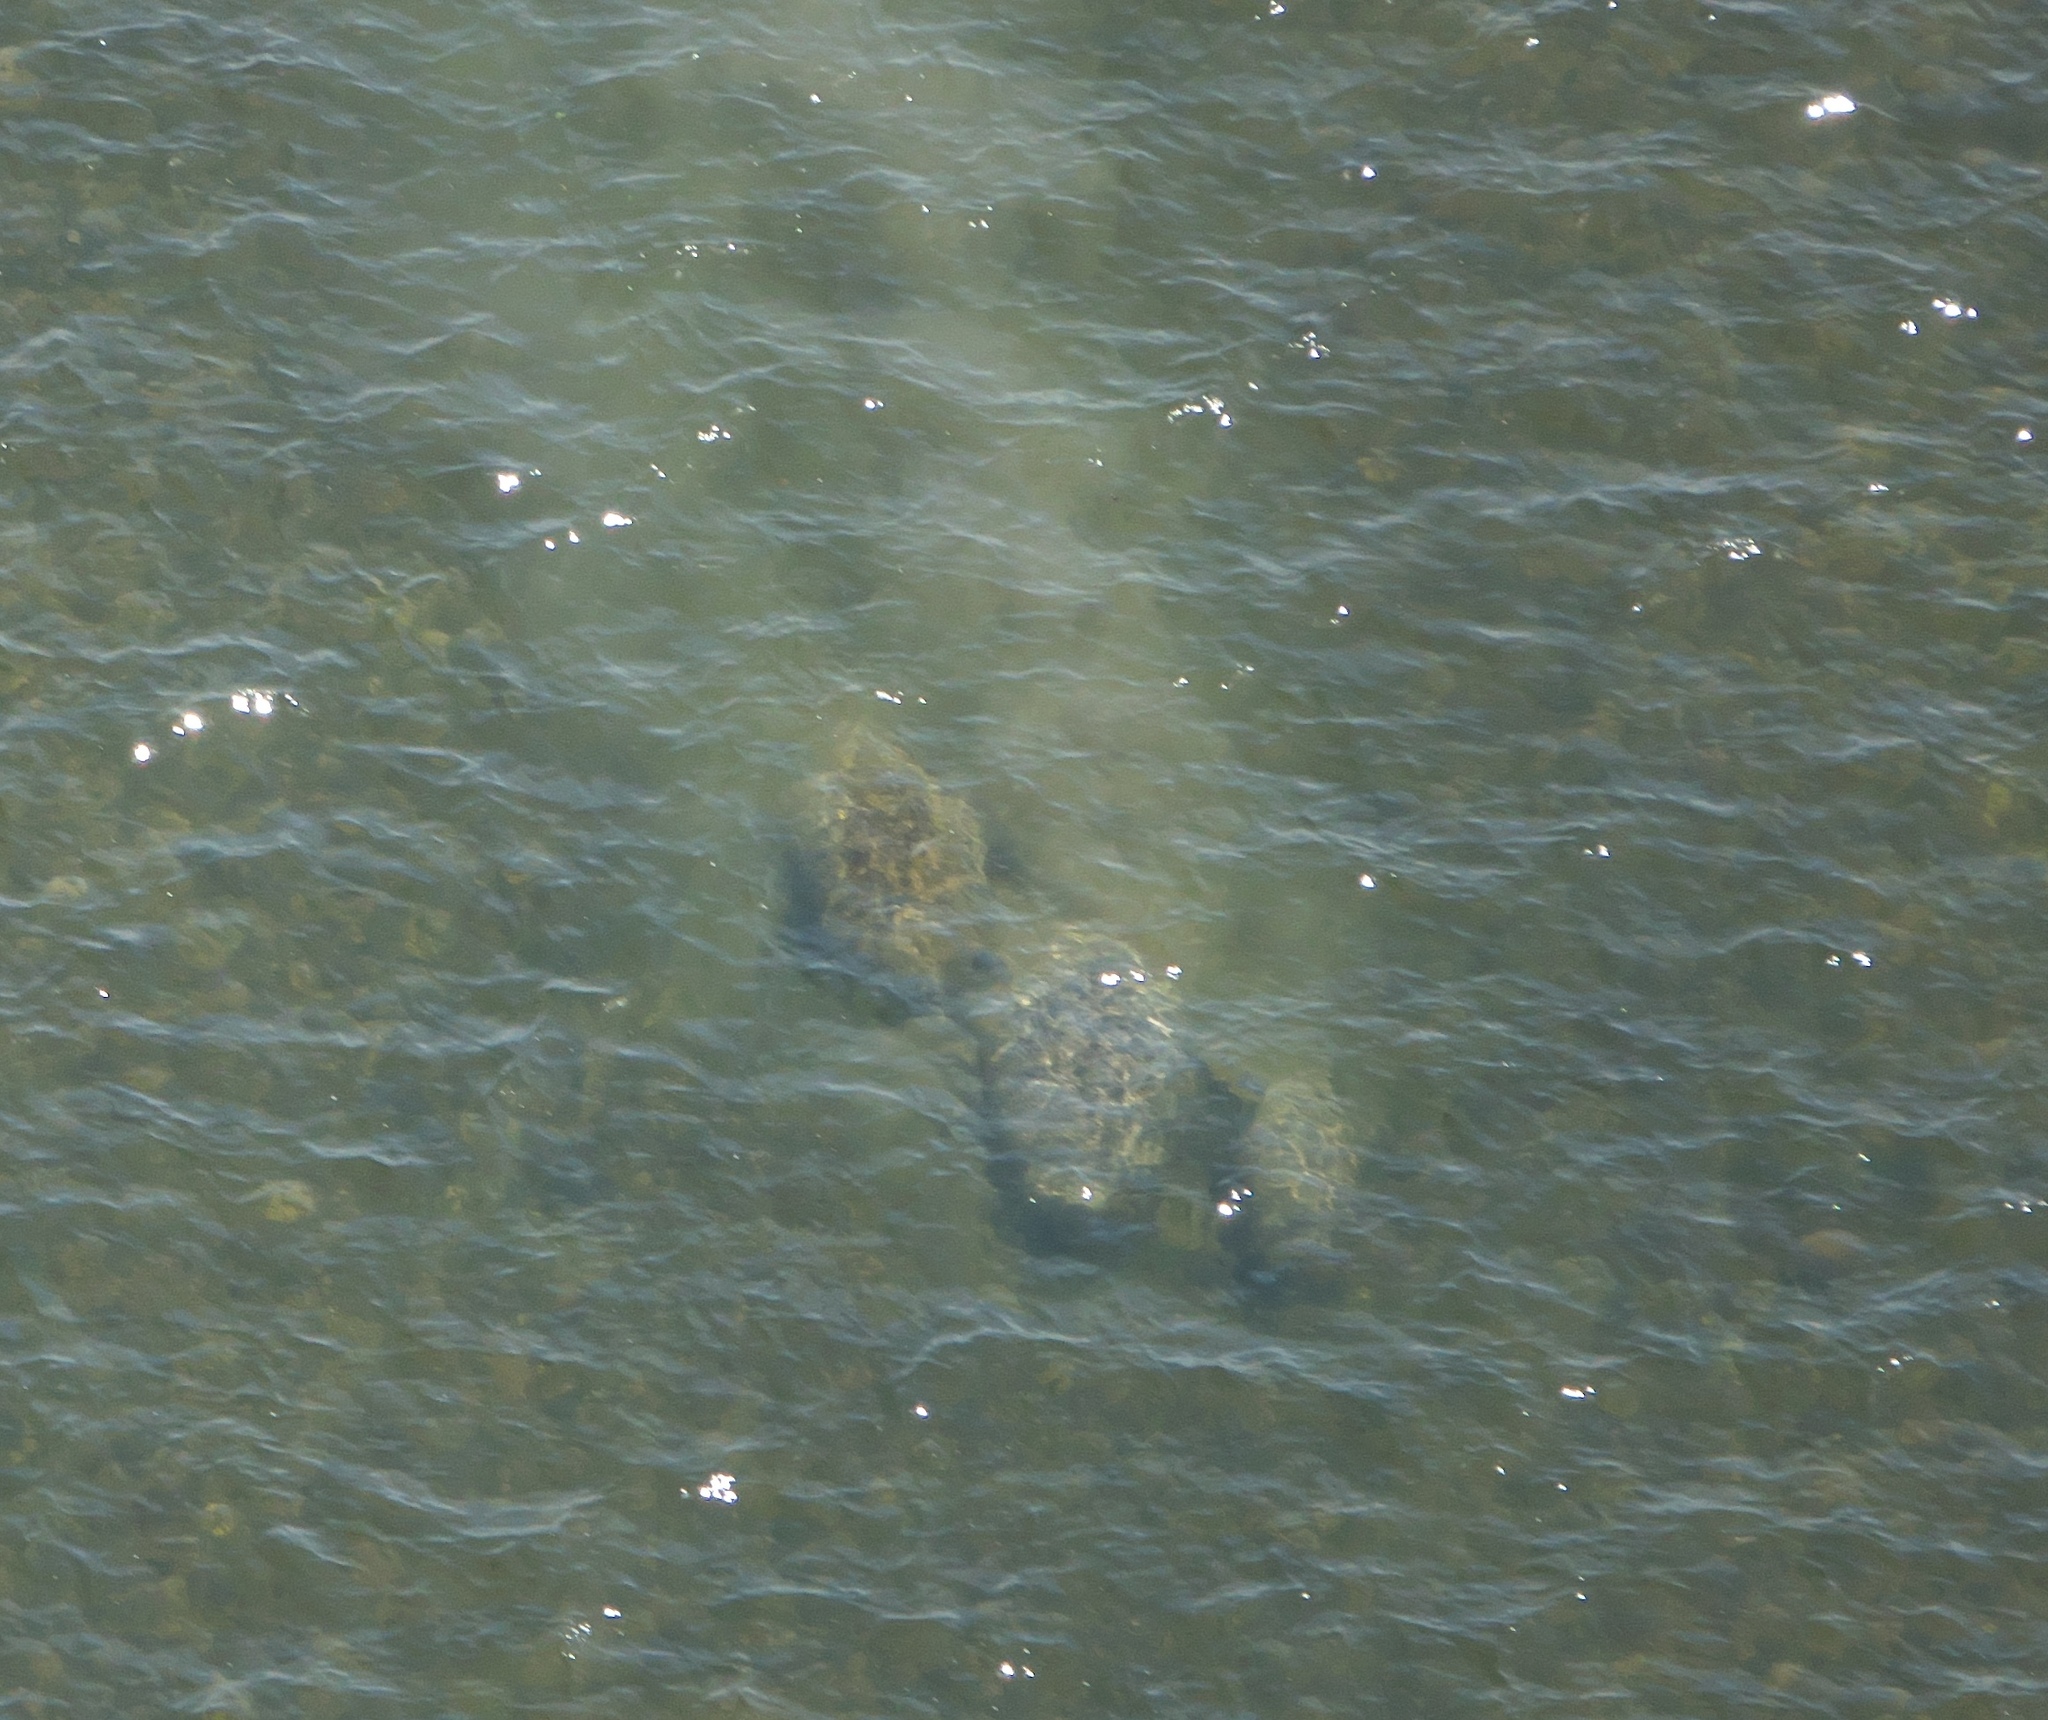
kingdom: Animalia
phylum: Chordata
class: Mammalia
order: Sirenia
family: Trichechidae
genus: Trichechus
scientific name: Trichechus manatus
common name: West indian manatee
